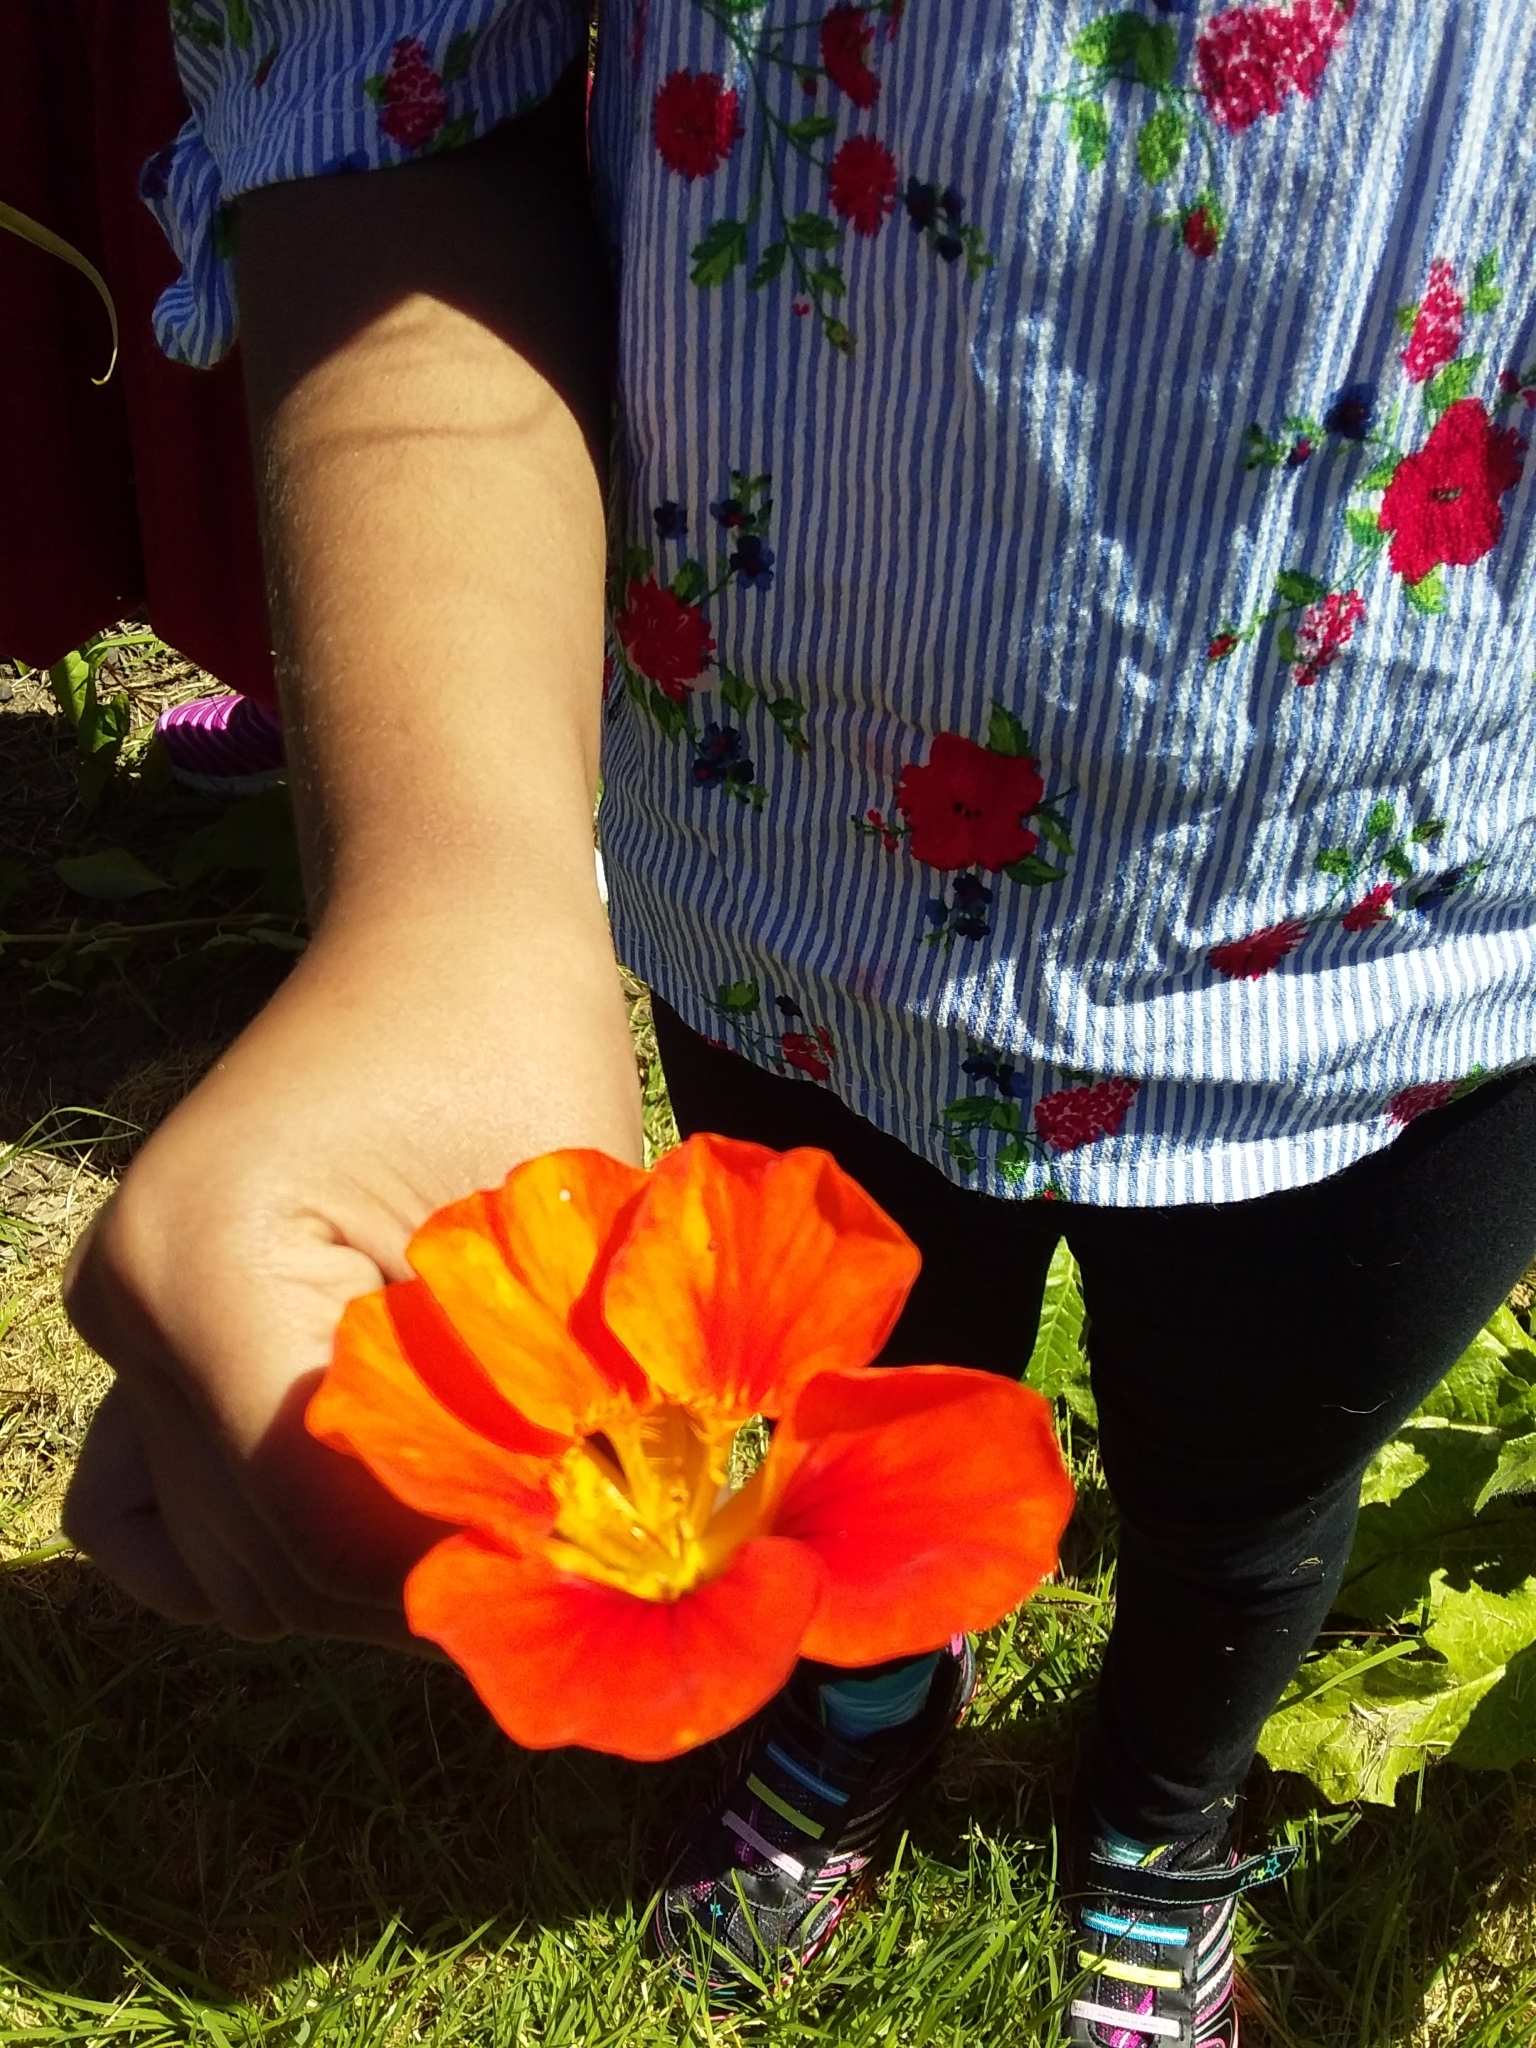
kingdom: Plantae
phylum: Tracheophyta
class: Magnoliopsida
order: Brassicales
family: Tropaeolaceae
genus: Tropaeolum
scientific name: Tropaeolum majus
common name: Nasturtium
